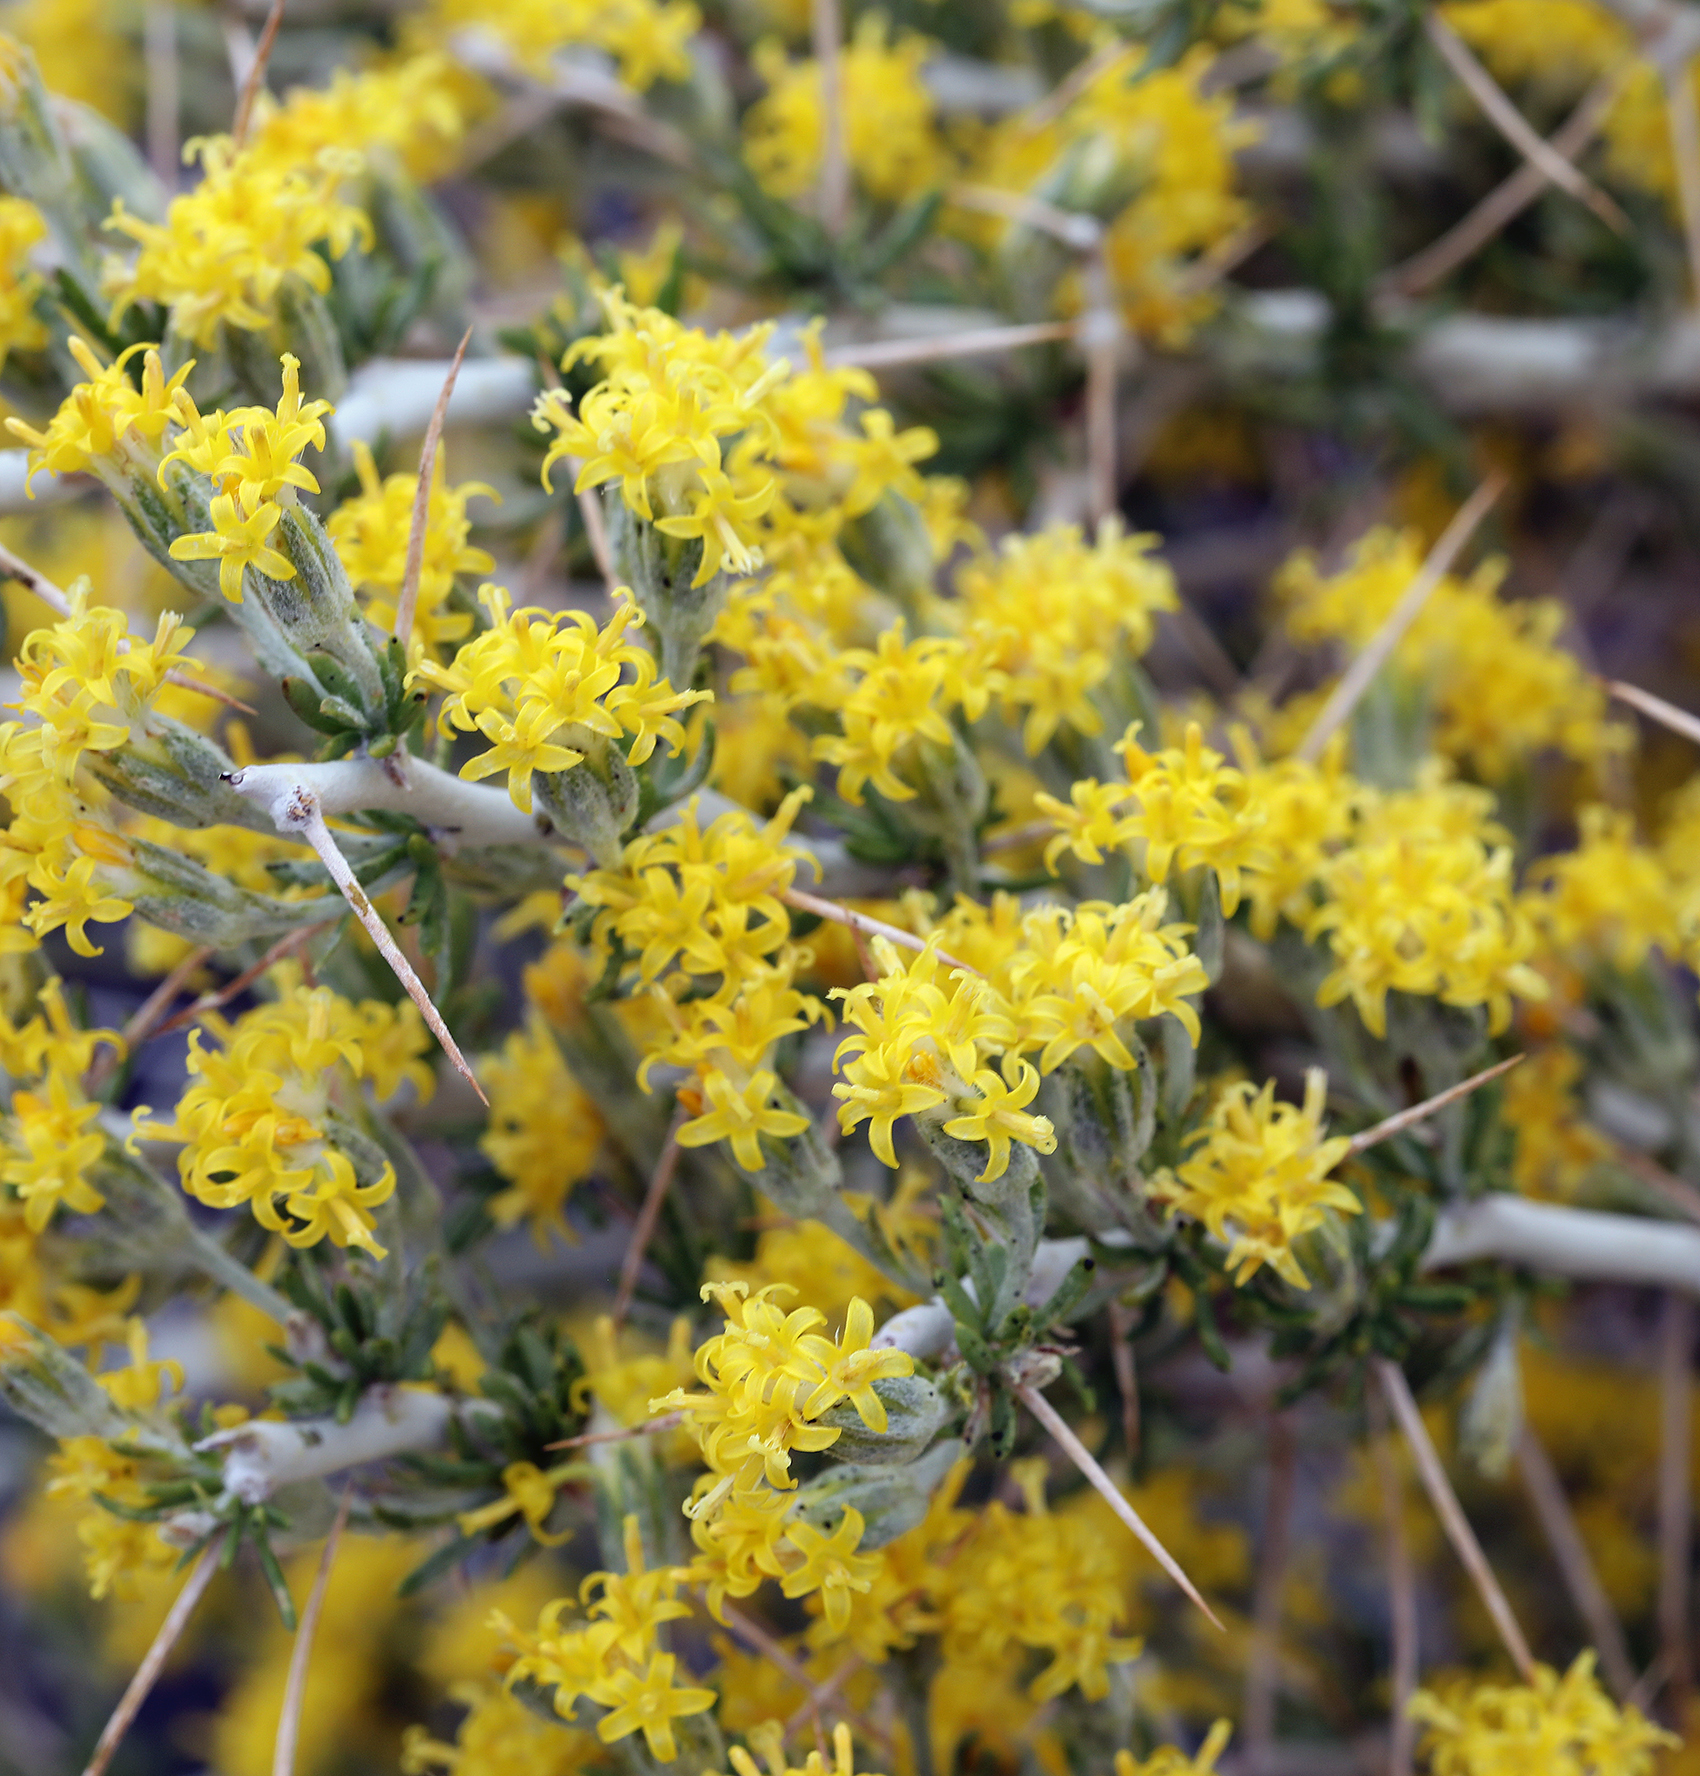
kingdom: Plantae
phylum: Tracheophyta
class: Magnoliopsida
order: Asterales
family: Asteraceae
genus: Tetradymia
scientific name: Tetradymia axillaris
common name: Long-spine horsebrush
